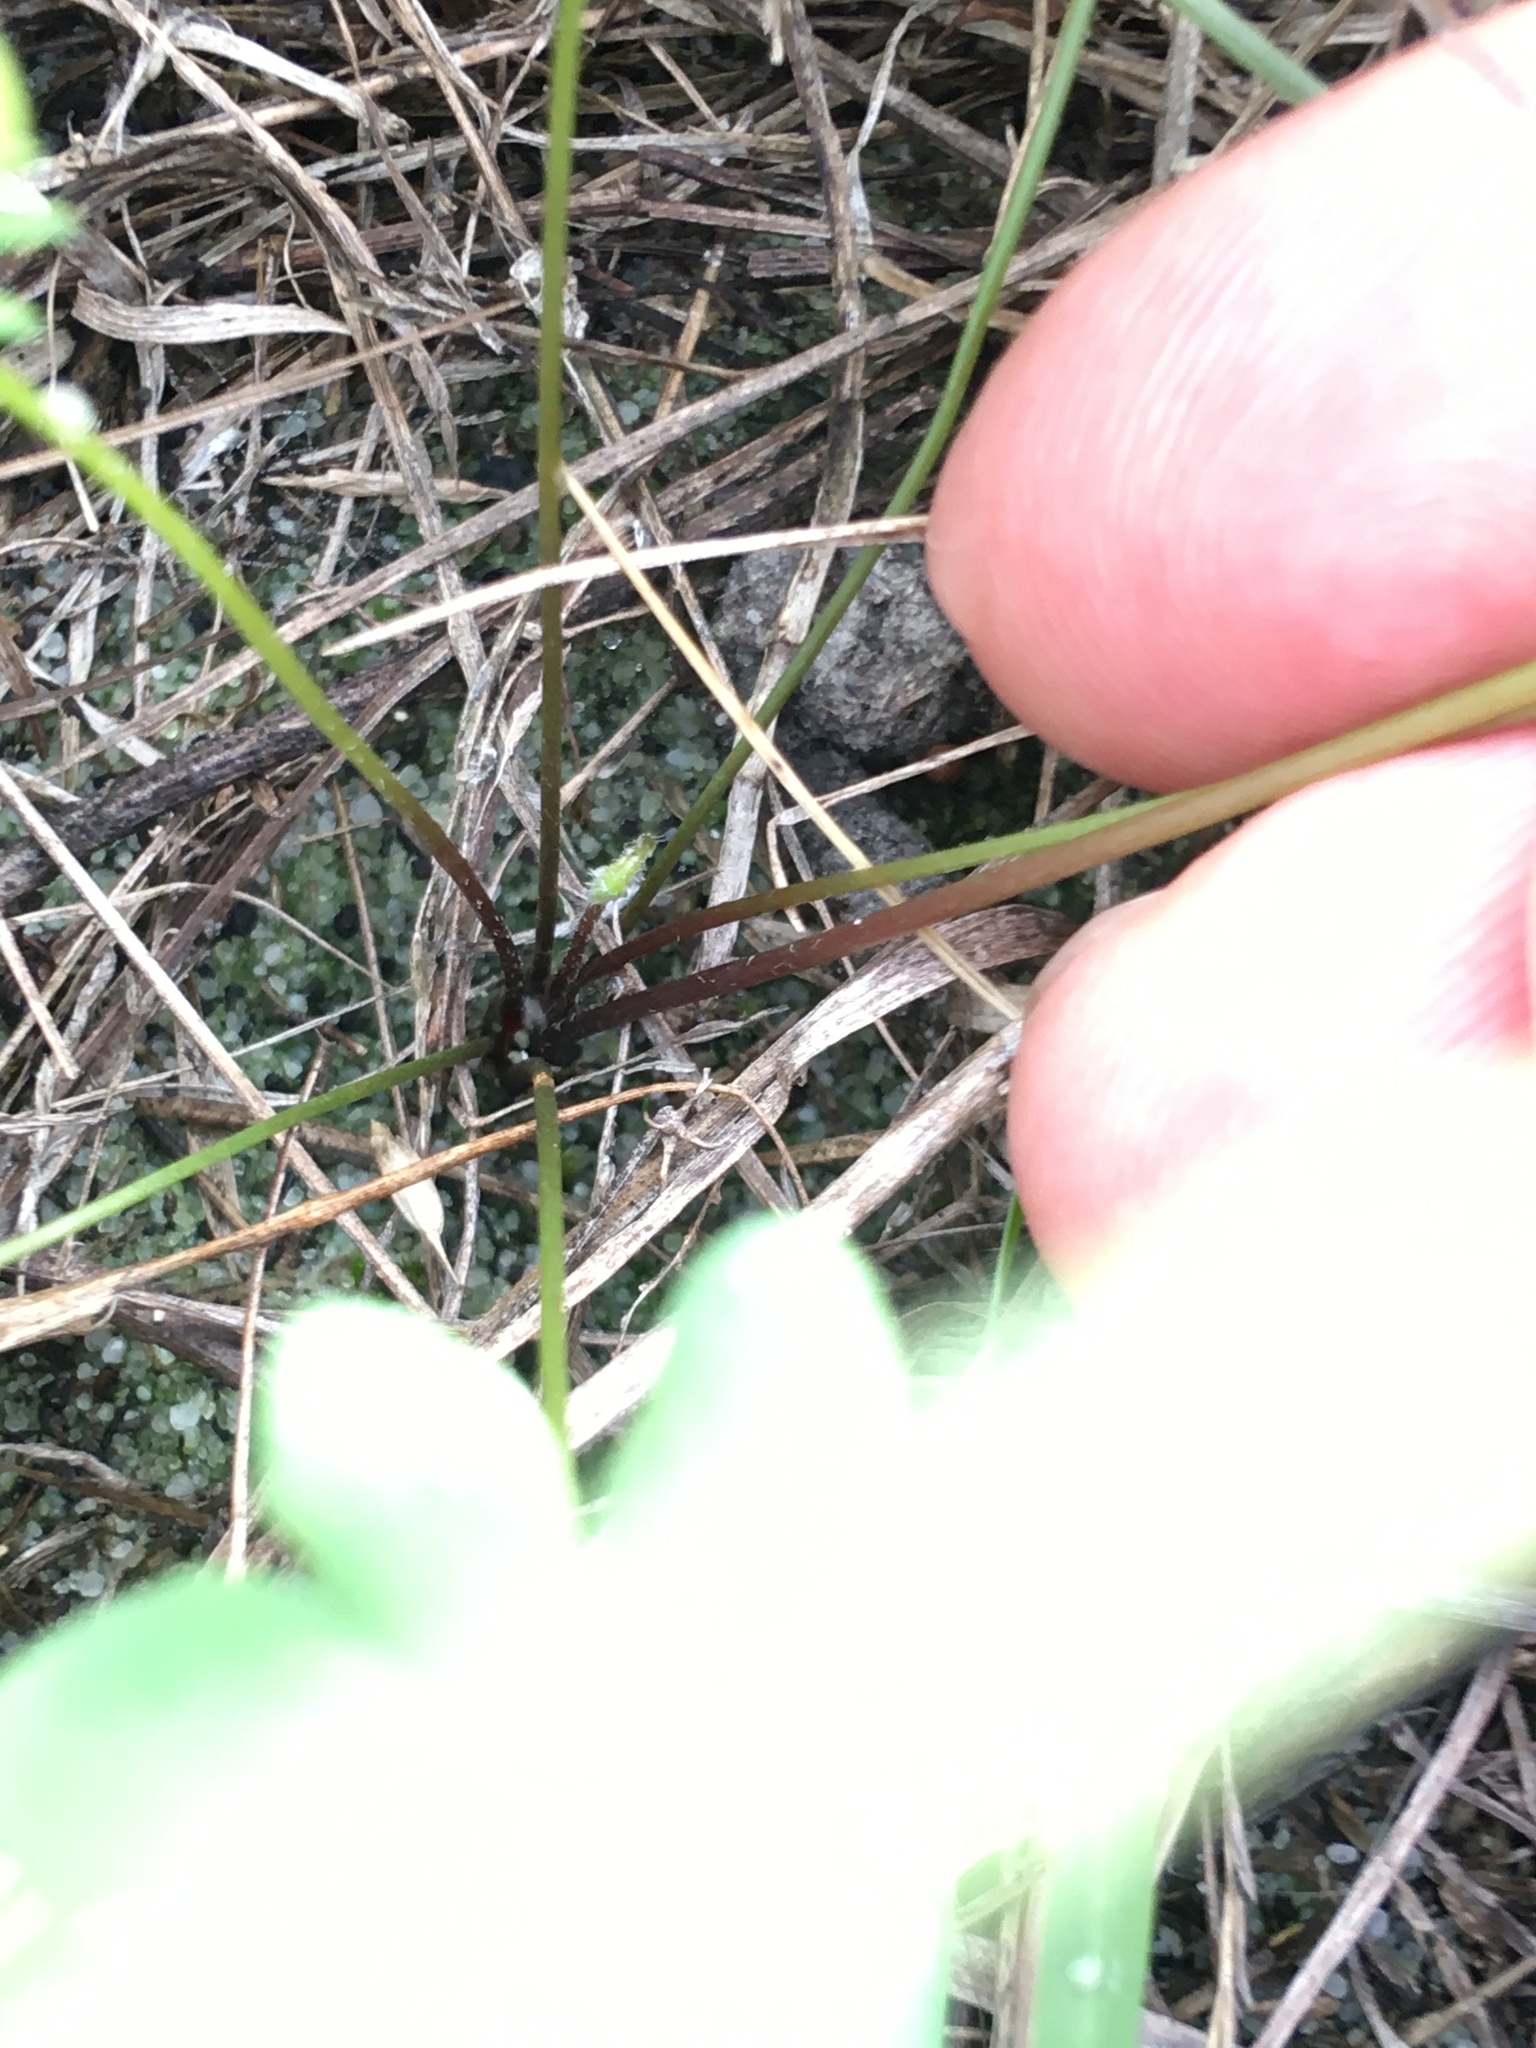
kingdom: Plantae
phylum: Tracheophyta
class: Magnoliopsida
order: Oxalidales
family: Oxalidaceae
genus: Oxalis
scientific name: Oxalis caprina
